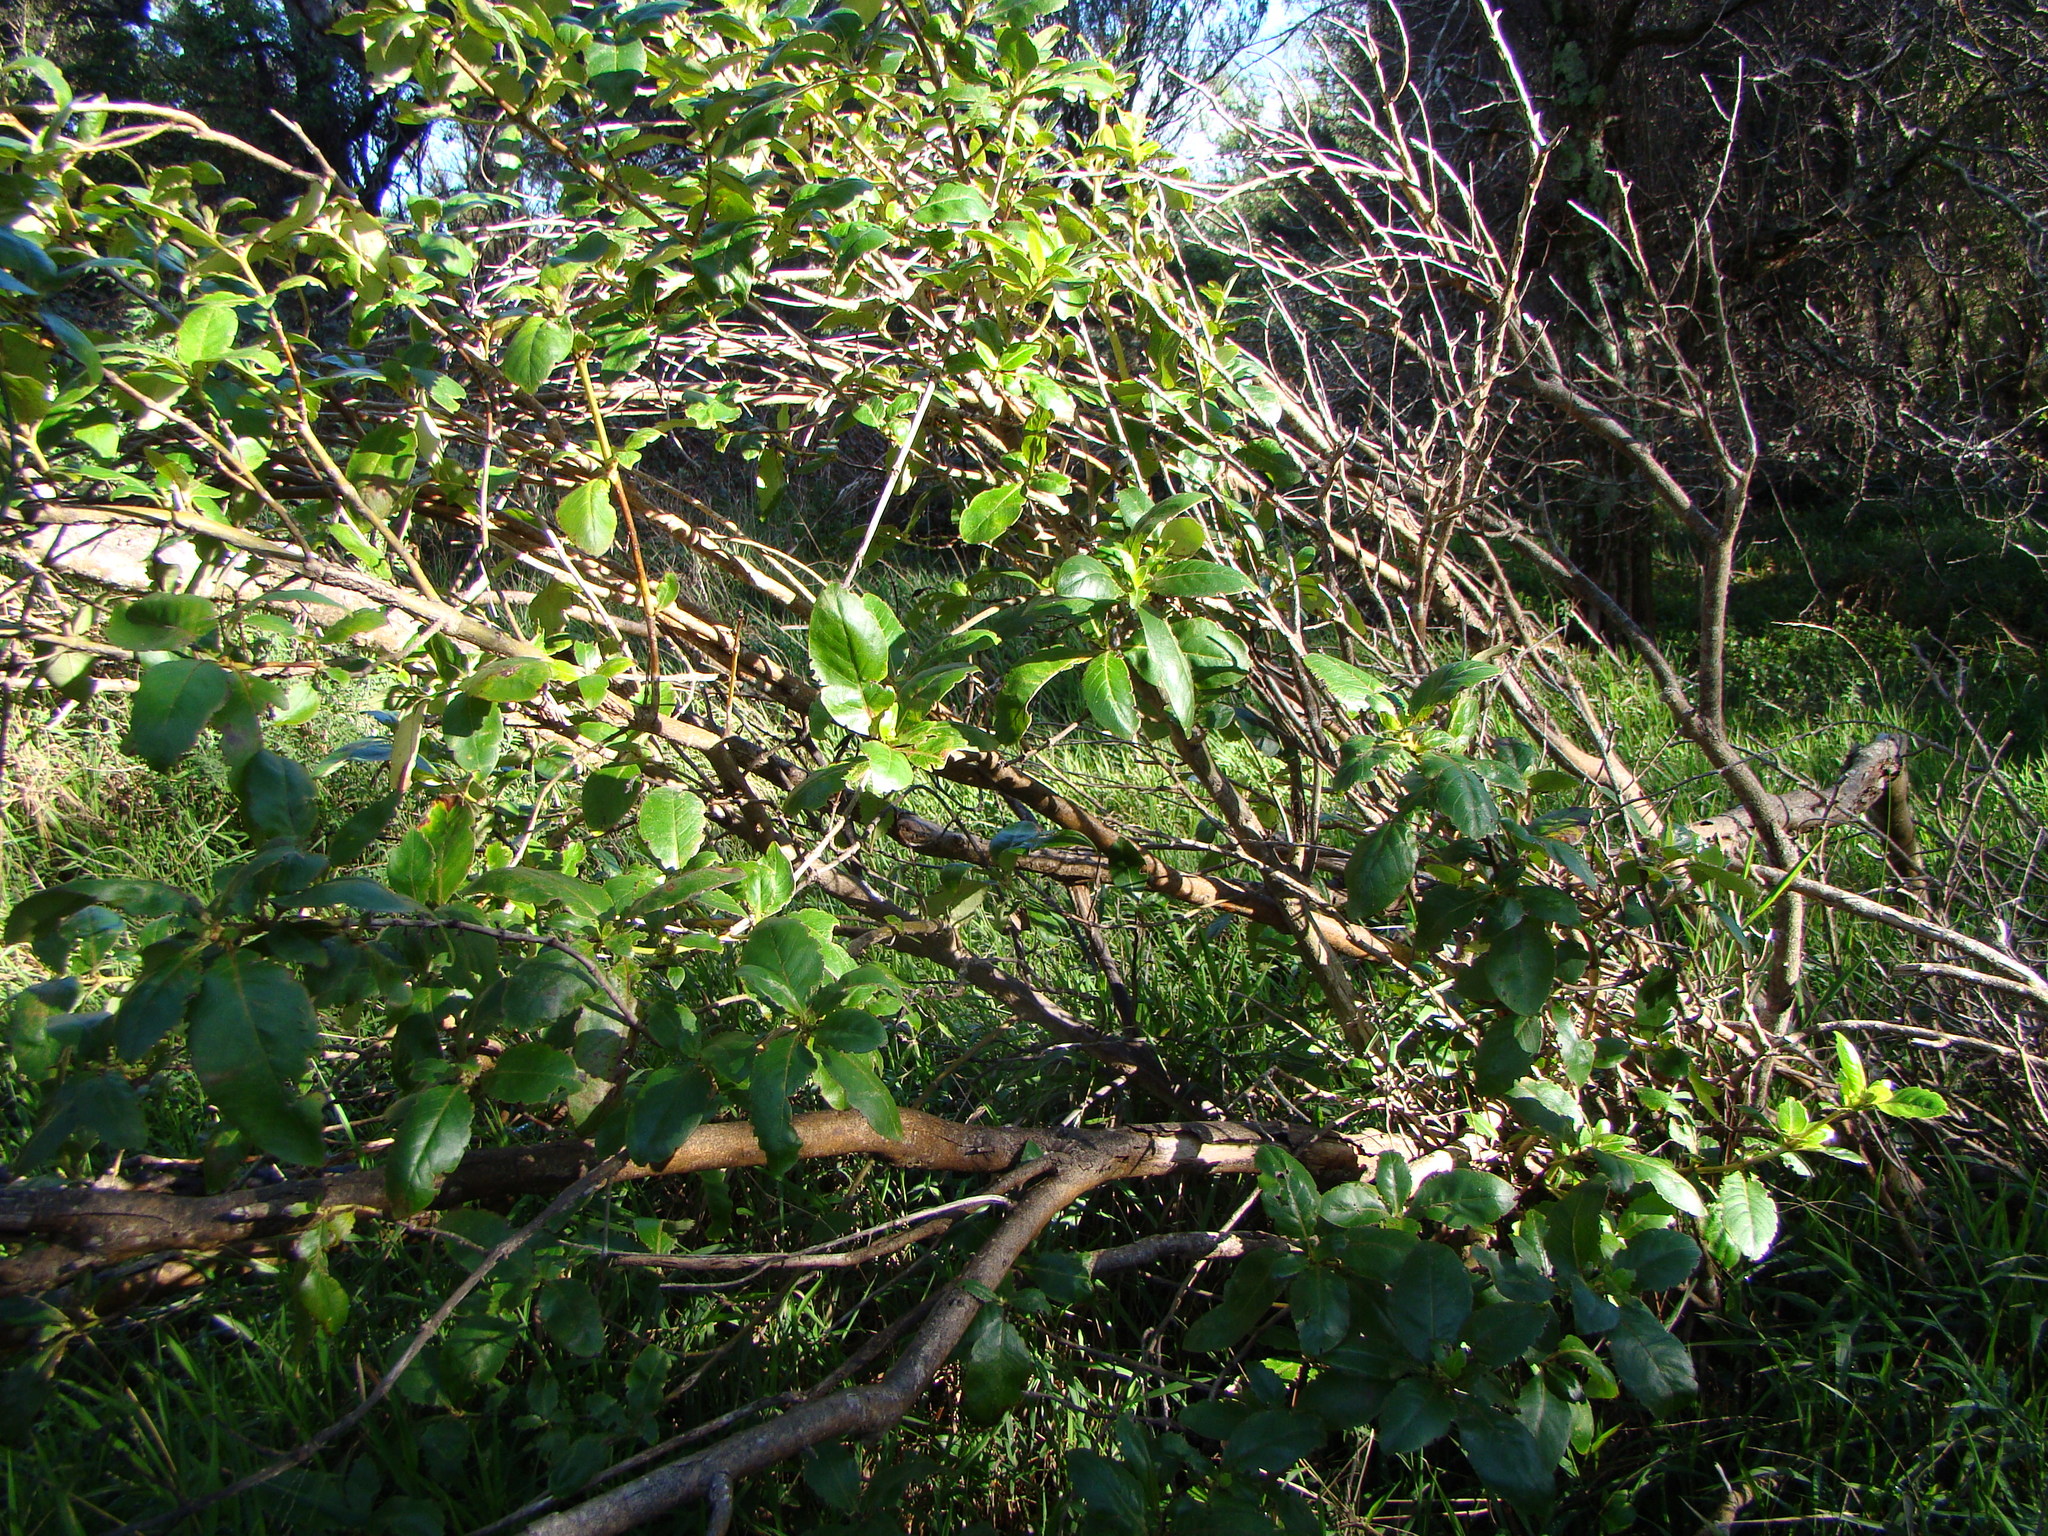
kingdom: Plantae
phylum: Tracheophyta
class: Magnoliopsida
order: Gentianales
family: Rubiaceae
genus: Coprosma
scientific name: Coprosma robusta
